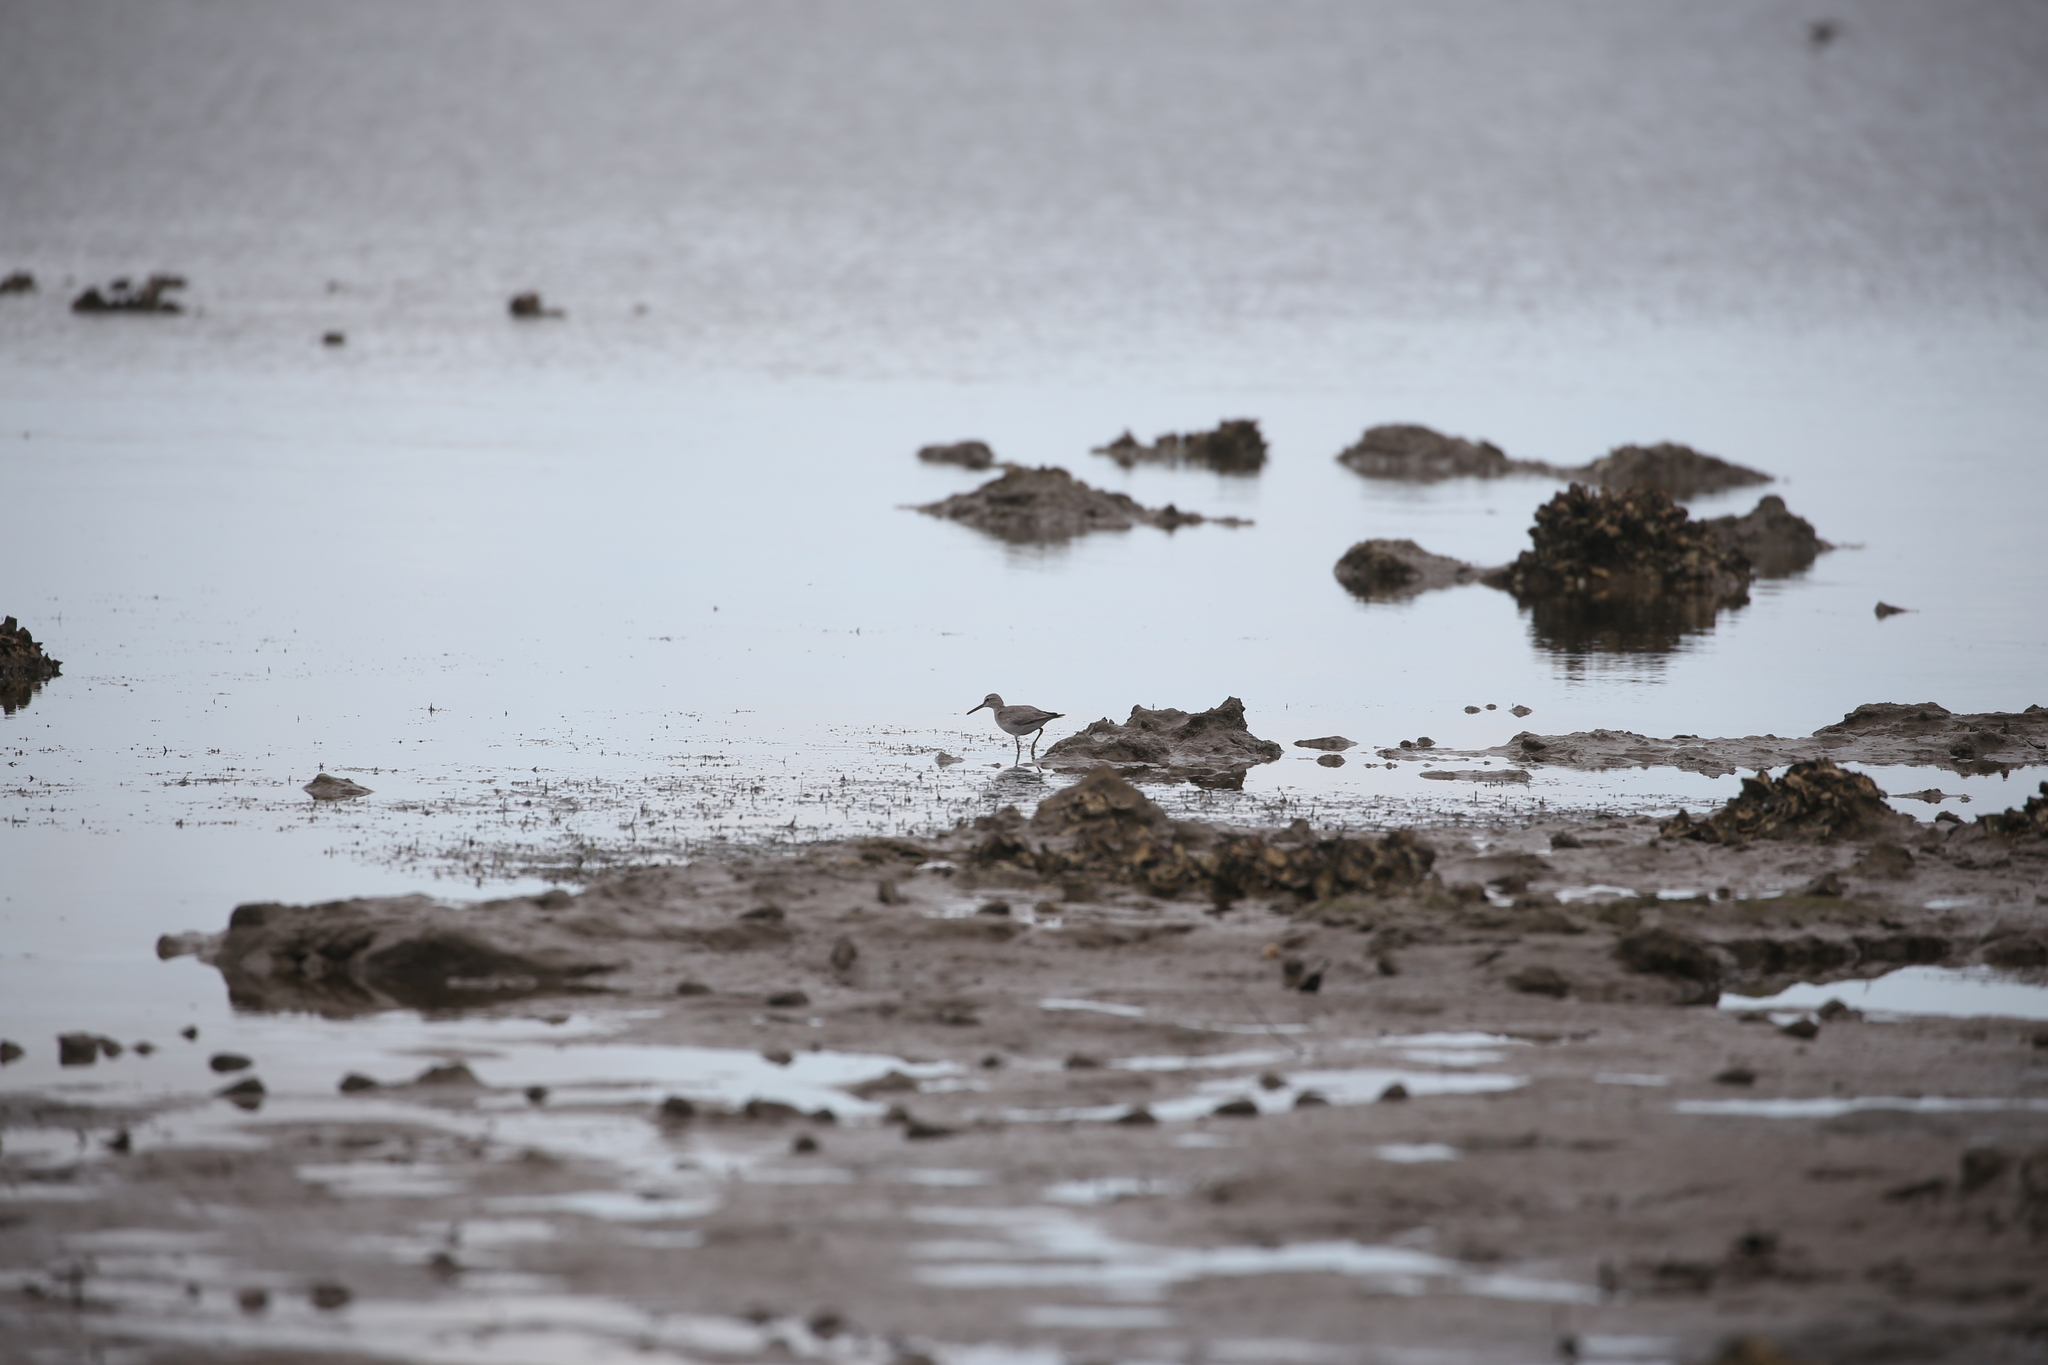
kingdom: Animalia
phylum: Chordata
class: Aves
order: Charadriiformes
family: Scolopacidae
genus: Tringa
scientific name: Tringa brevipes
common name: Grey-tailed tattler
